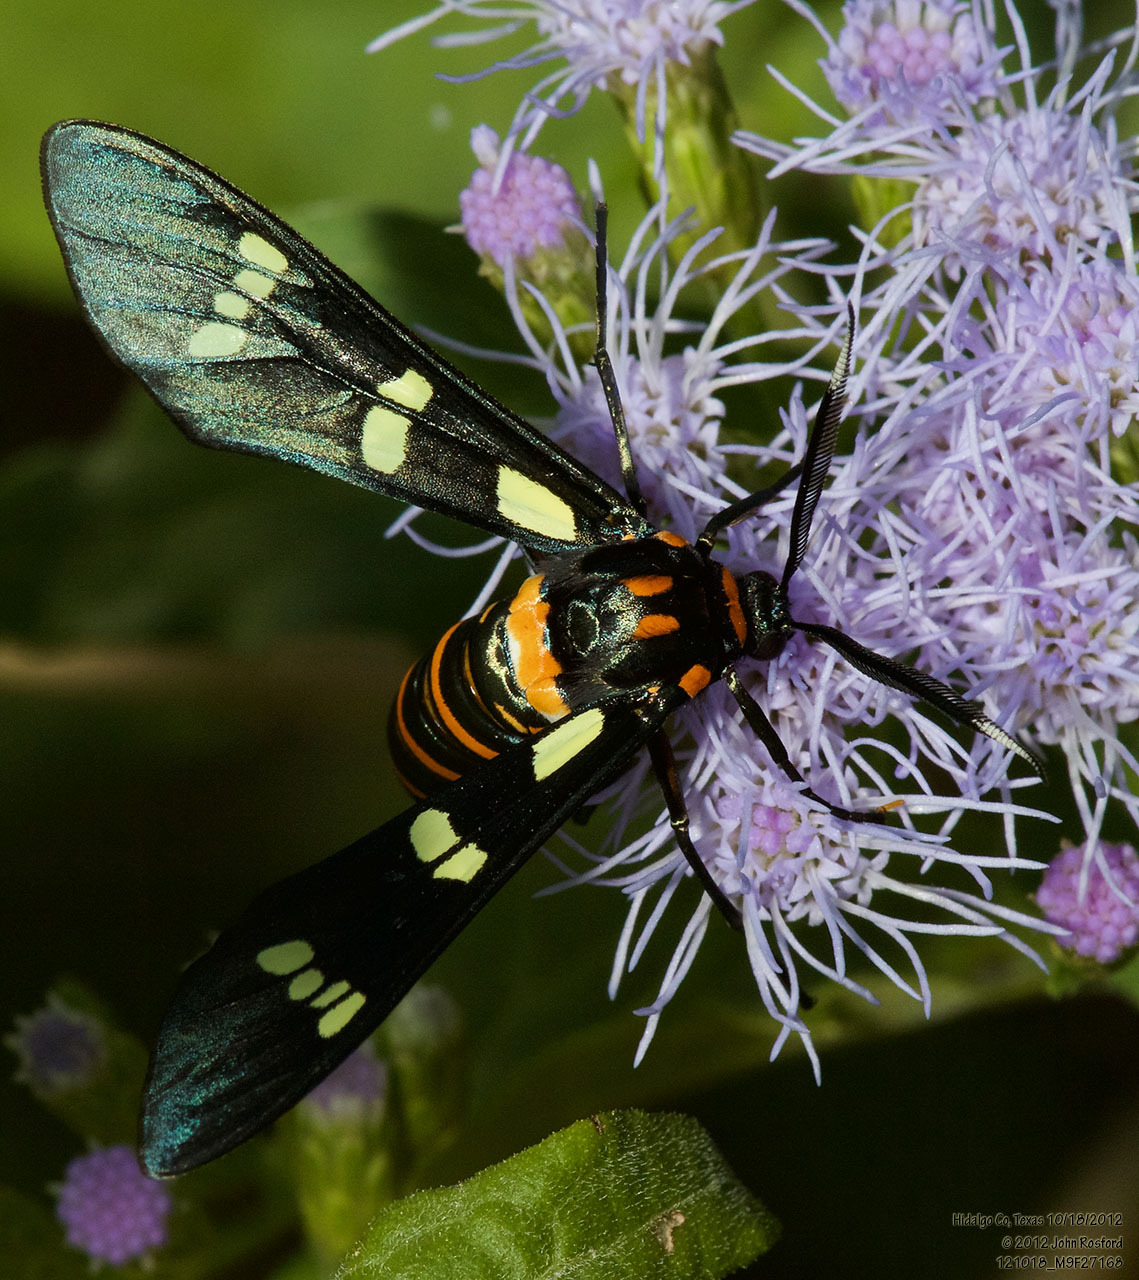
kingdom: Animalia
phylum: Arthropoda
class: Insecta
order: Lepidoptera
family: Erebidae
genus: Syntomeida
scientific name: Syntomeida melanthus
